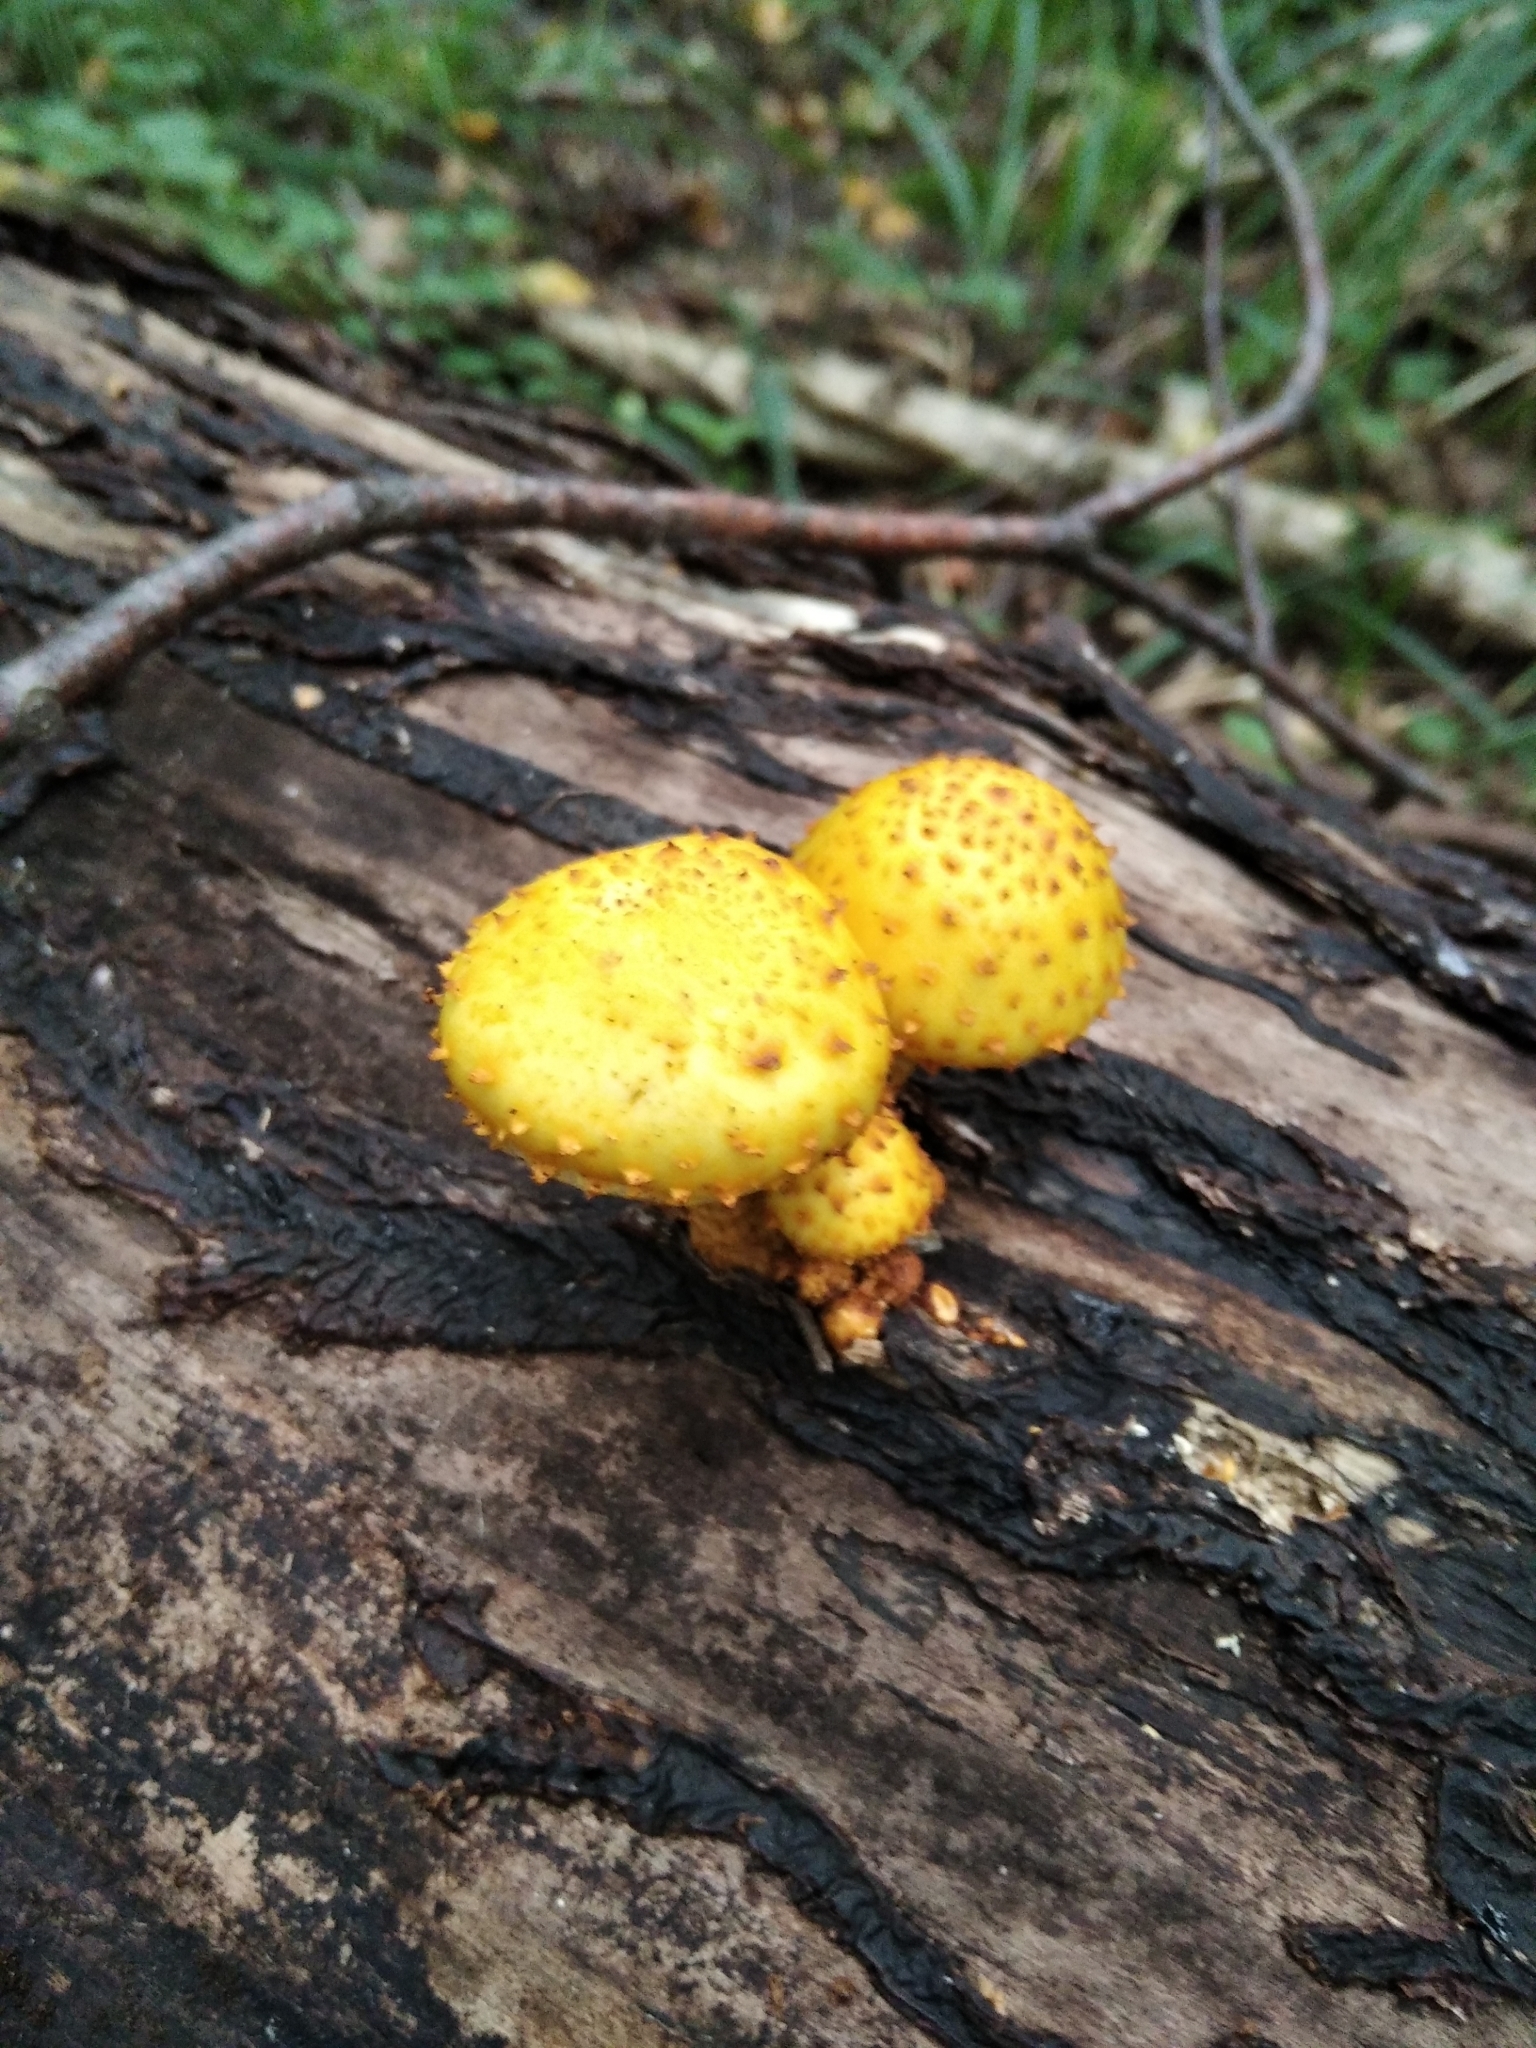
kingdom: Fungi
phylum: Basidiomycota
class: Agaricomycetes
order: Agaricales
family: Strophariaceae
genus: Pholiota
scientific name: Pholiota aurivella
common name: Golden scalycap
